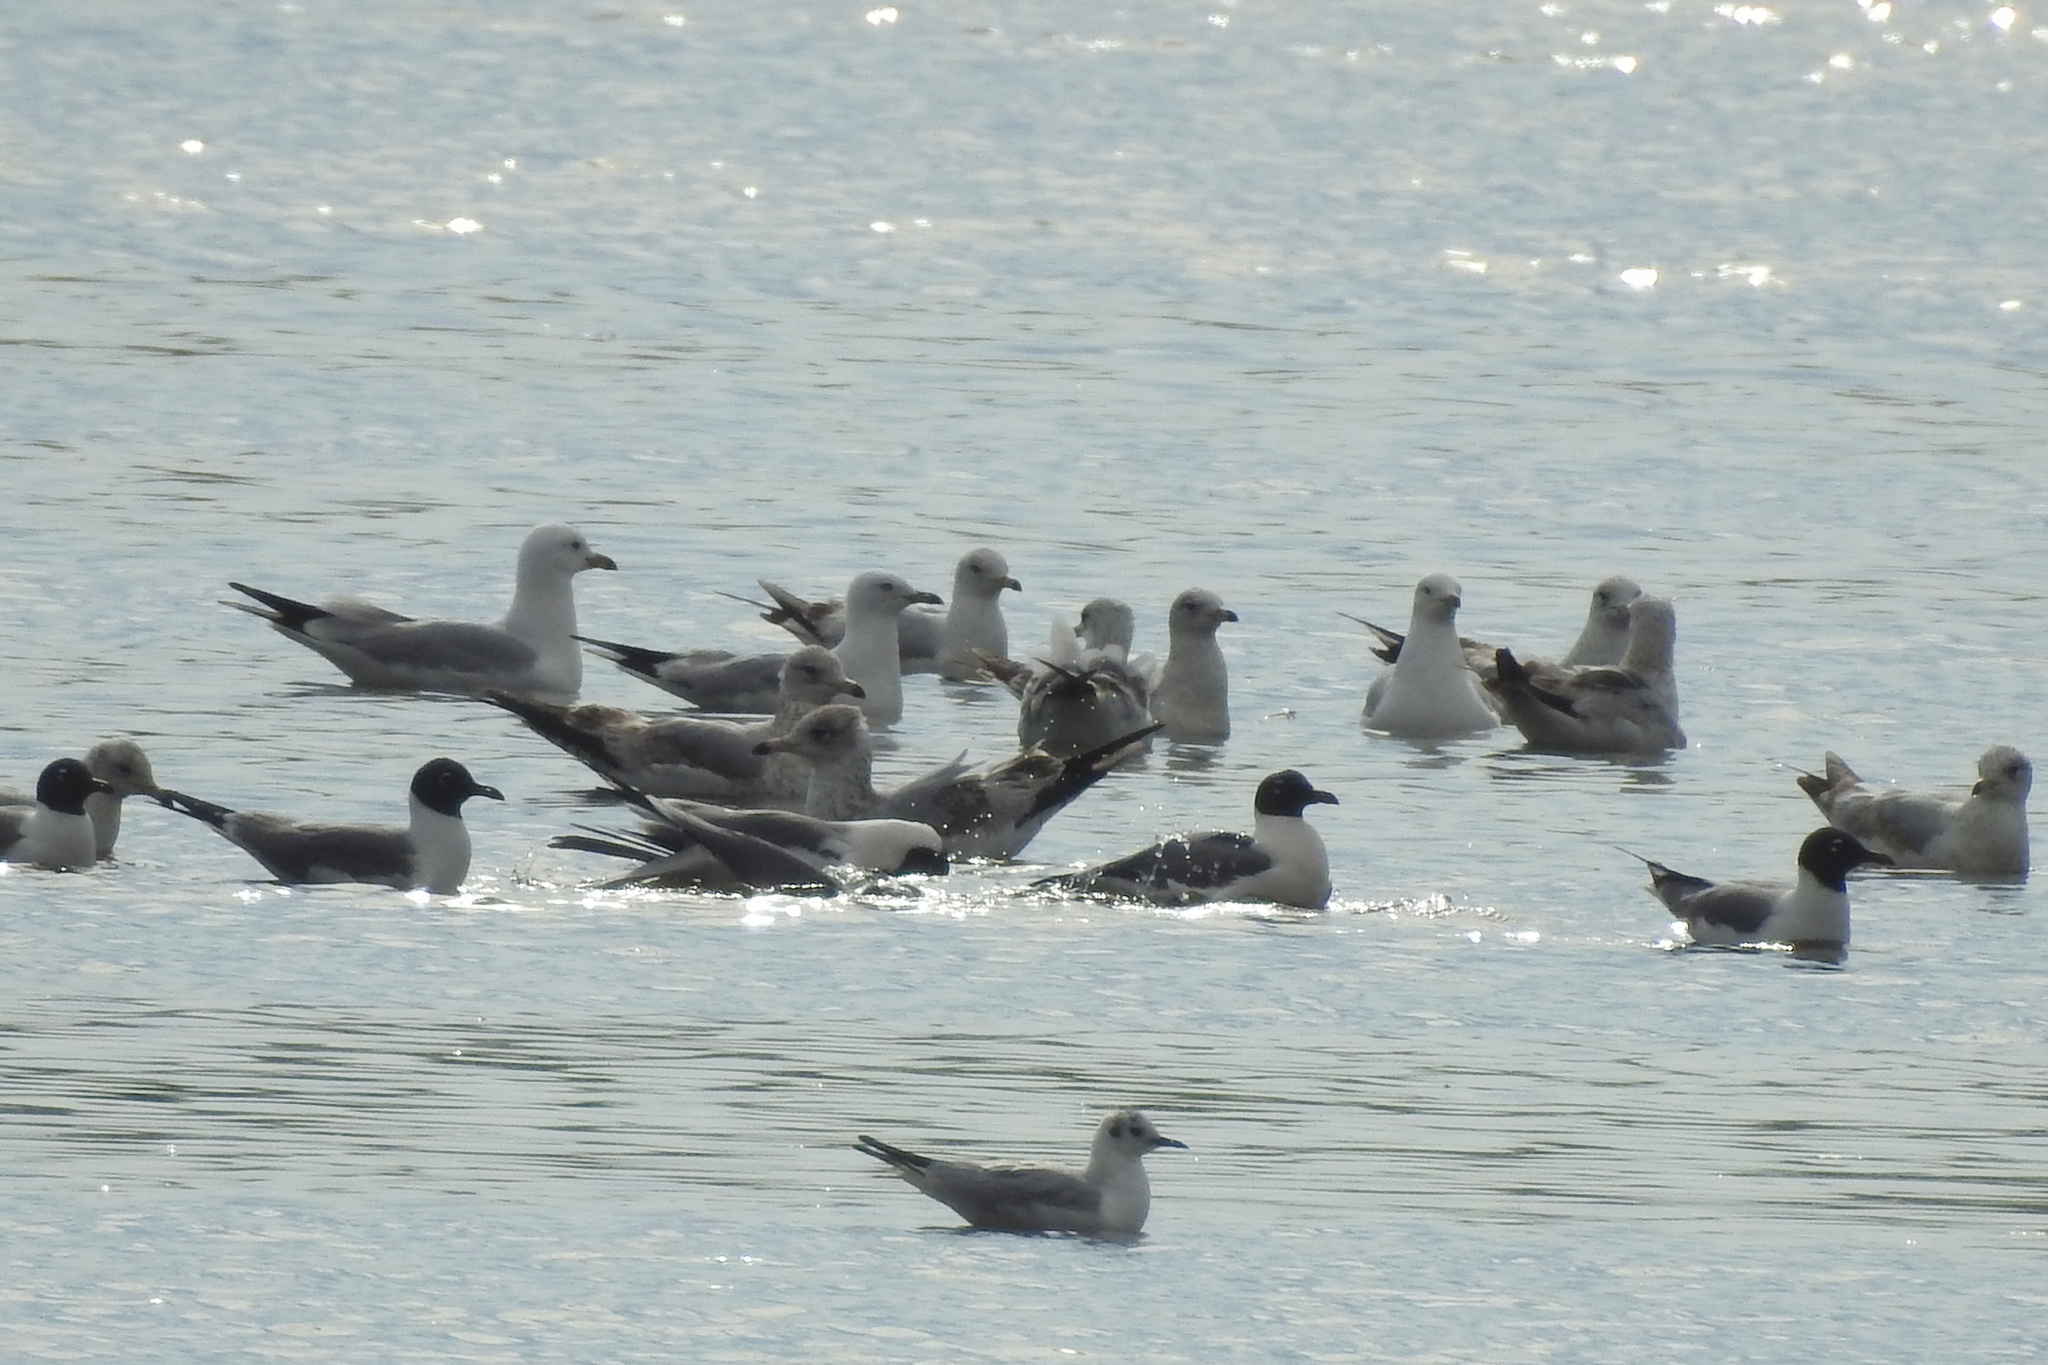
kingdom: Animalia
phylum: Chordata
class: Aves
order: Charadriiformes
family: Laridae
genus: Larus
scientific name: Larus delawarensis
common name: Ring-billed gull
